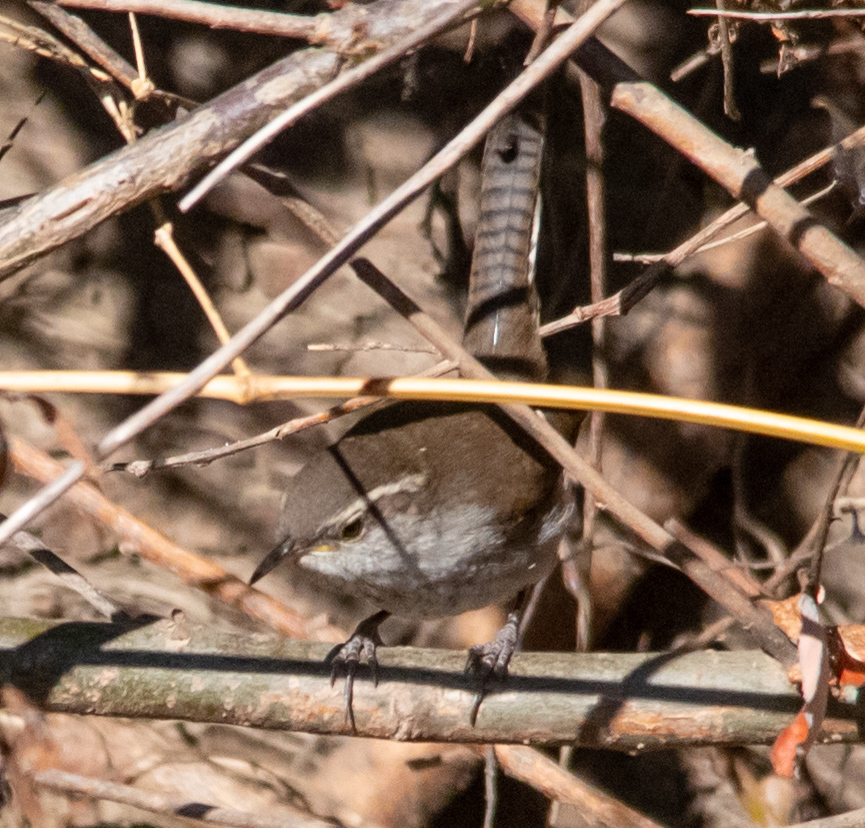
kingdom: Animalia
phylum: Chordata
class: Aves
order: Passeriformes
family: Troglodytidae
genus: Thryomanes
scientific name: Thryomanes bewickii
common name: Bewick's wren
